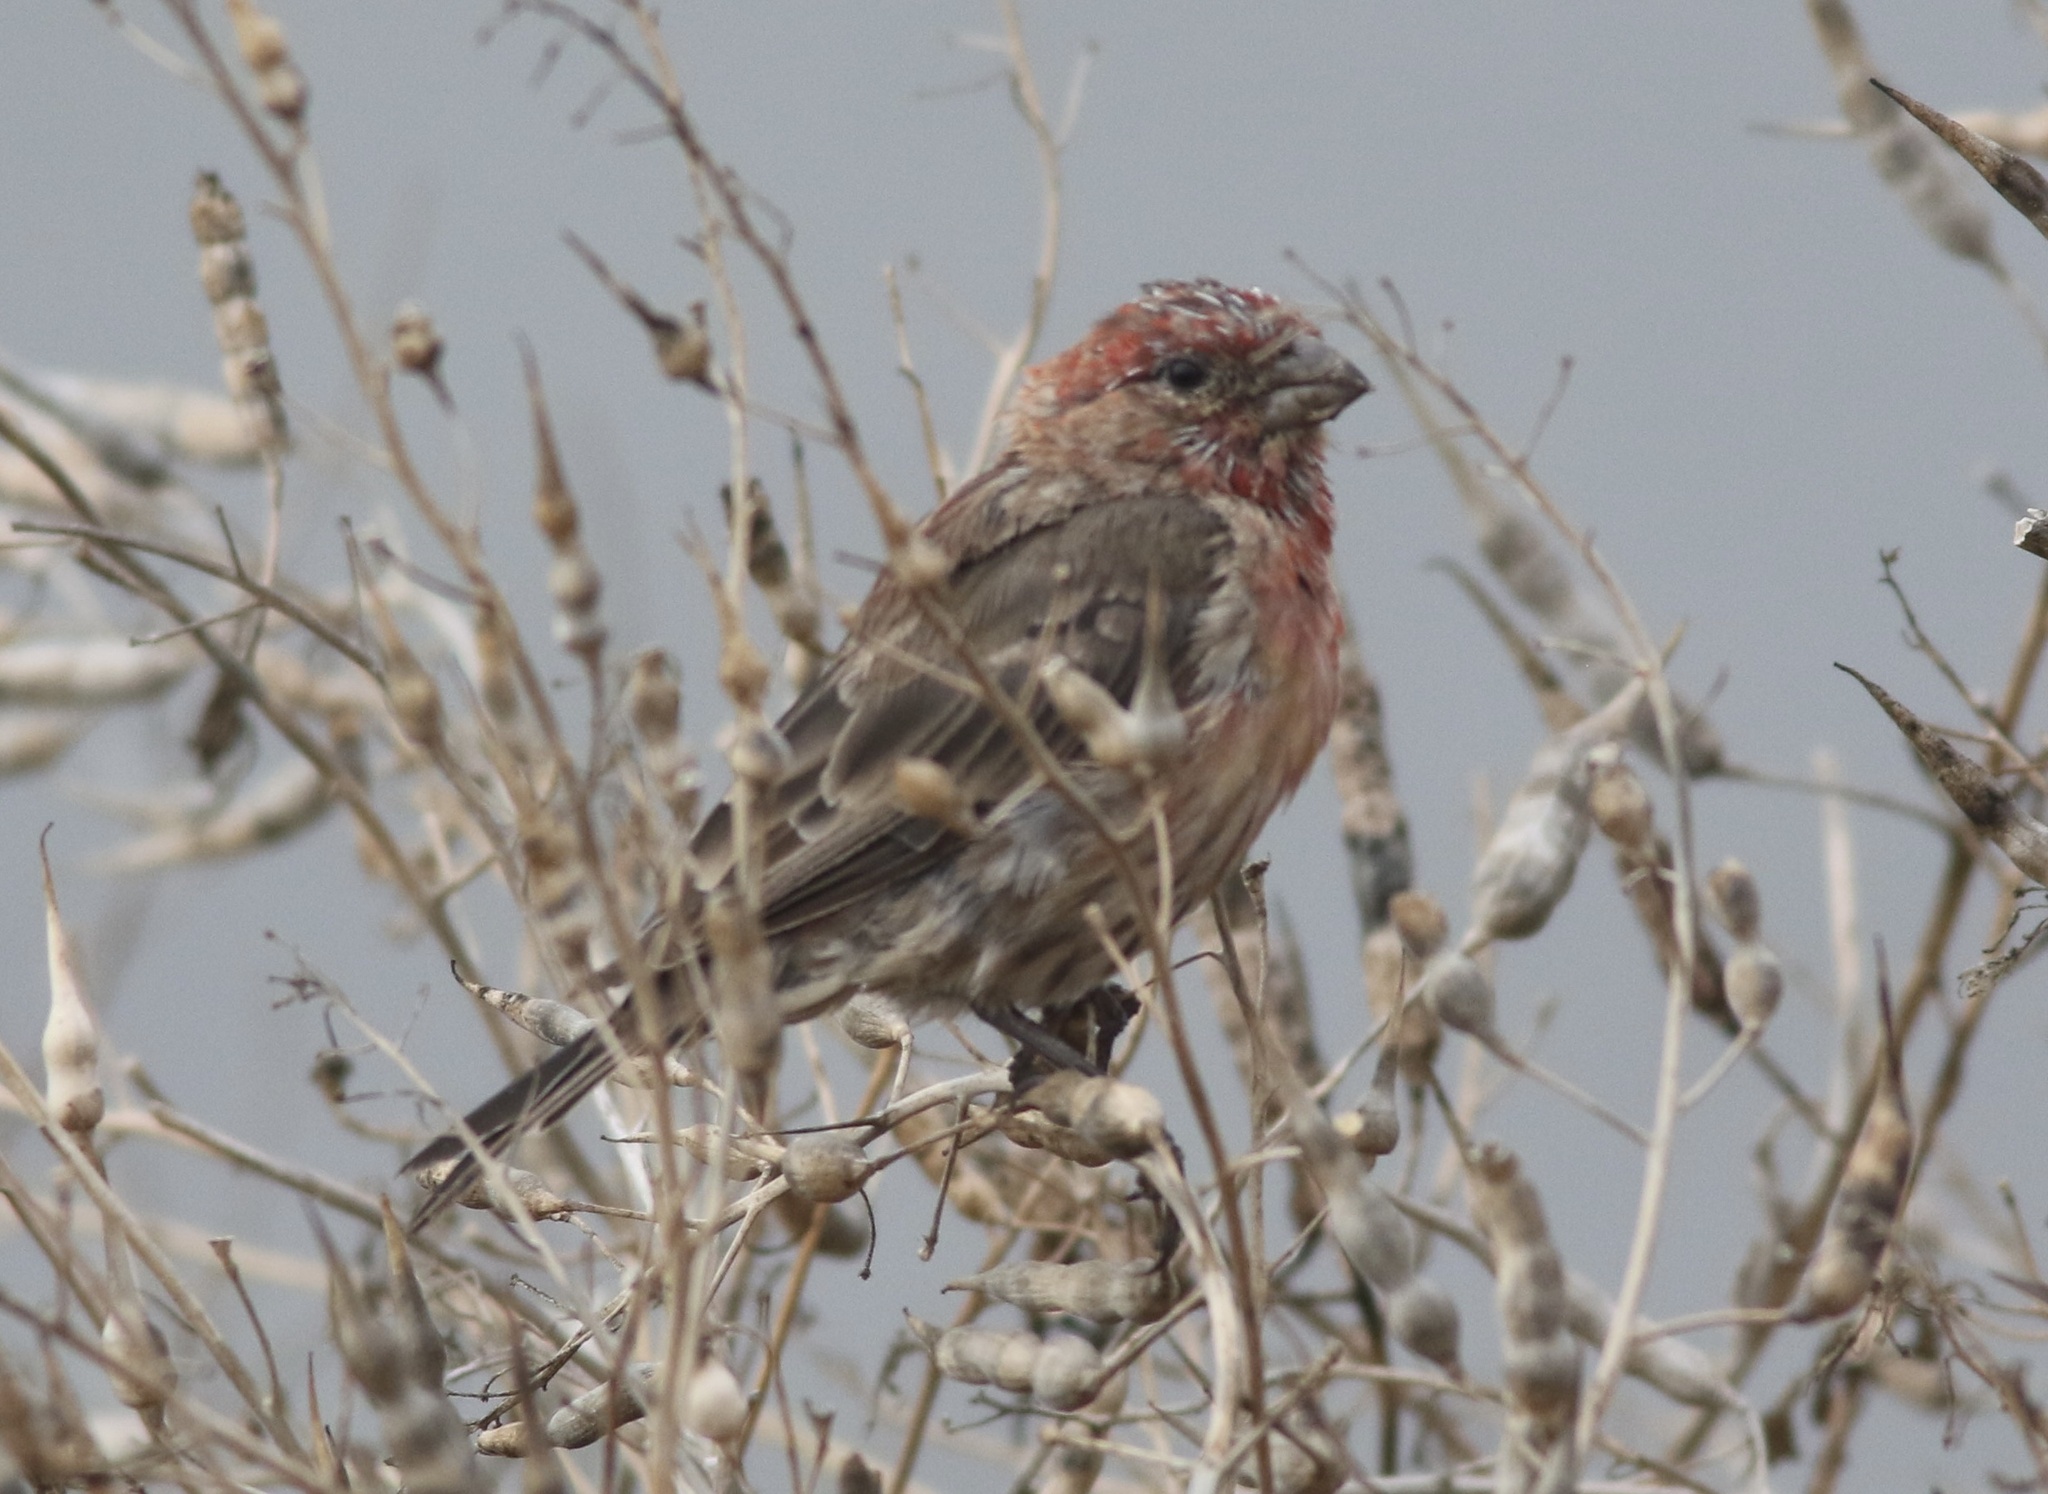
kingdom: Animalia
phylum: Chordata
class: Aves
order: Passeriformes
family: Fringillidae
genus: Haemorhous
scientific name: Haemorhous mexicanus
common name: House finch
